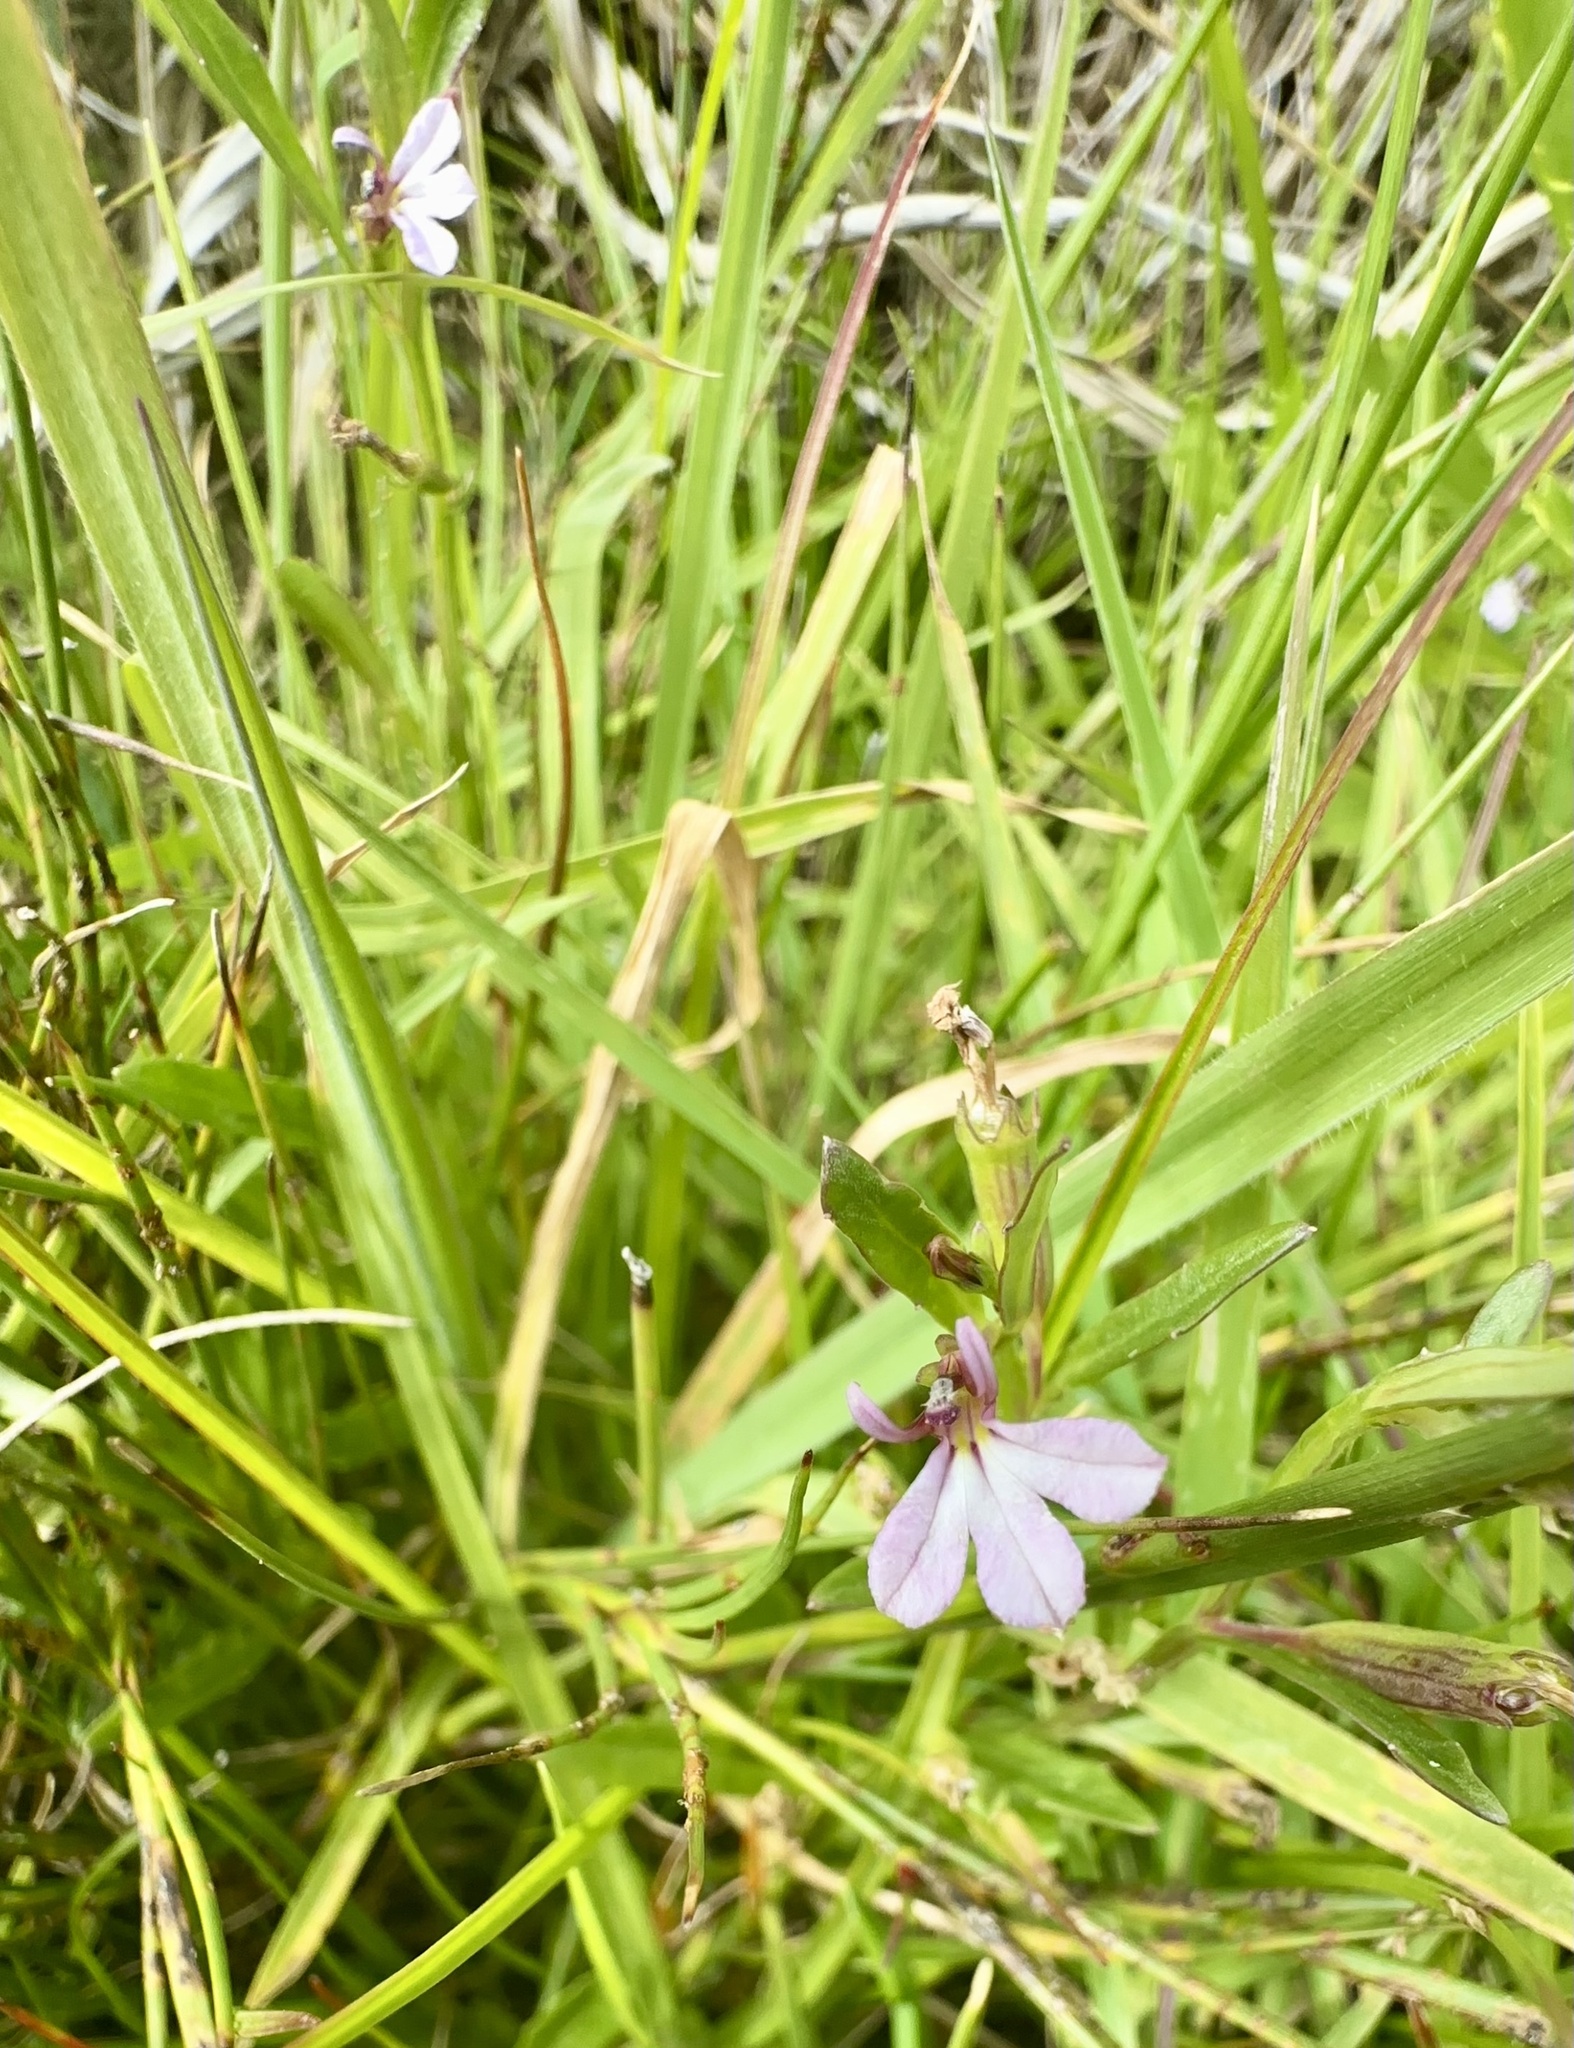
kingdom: Plantae
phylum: Tracheophyta
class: Magnoliopsida
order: Asterales
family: Campanulaceae
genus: Lobelia
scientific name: Lobelia anceps
